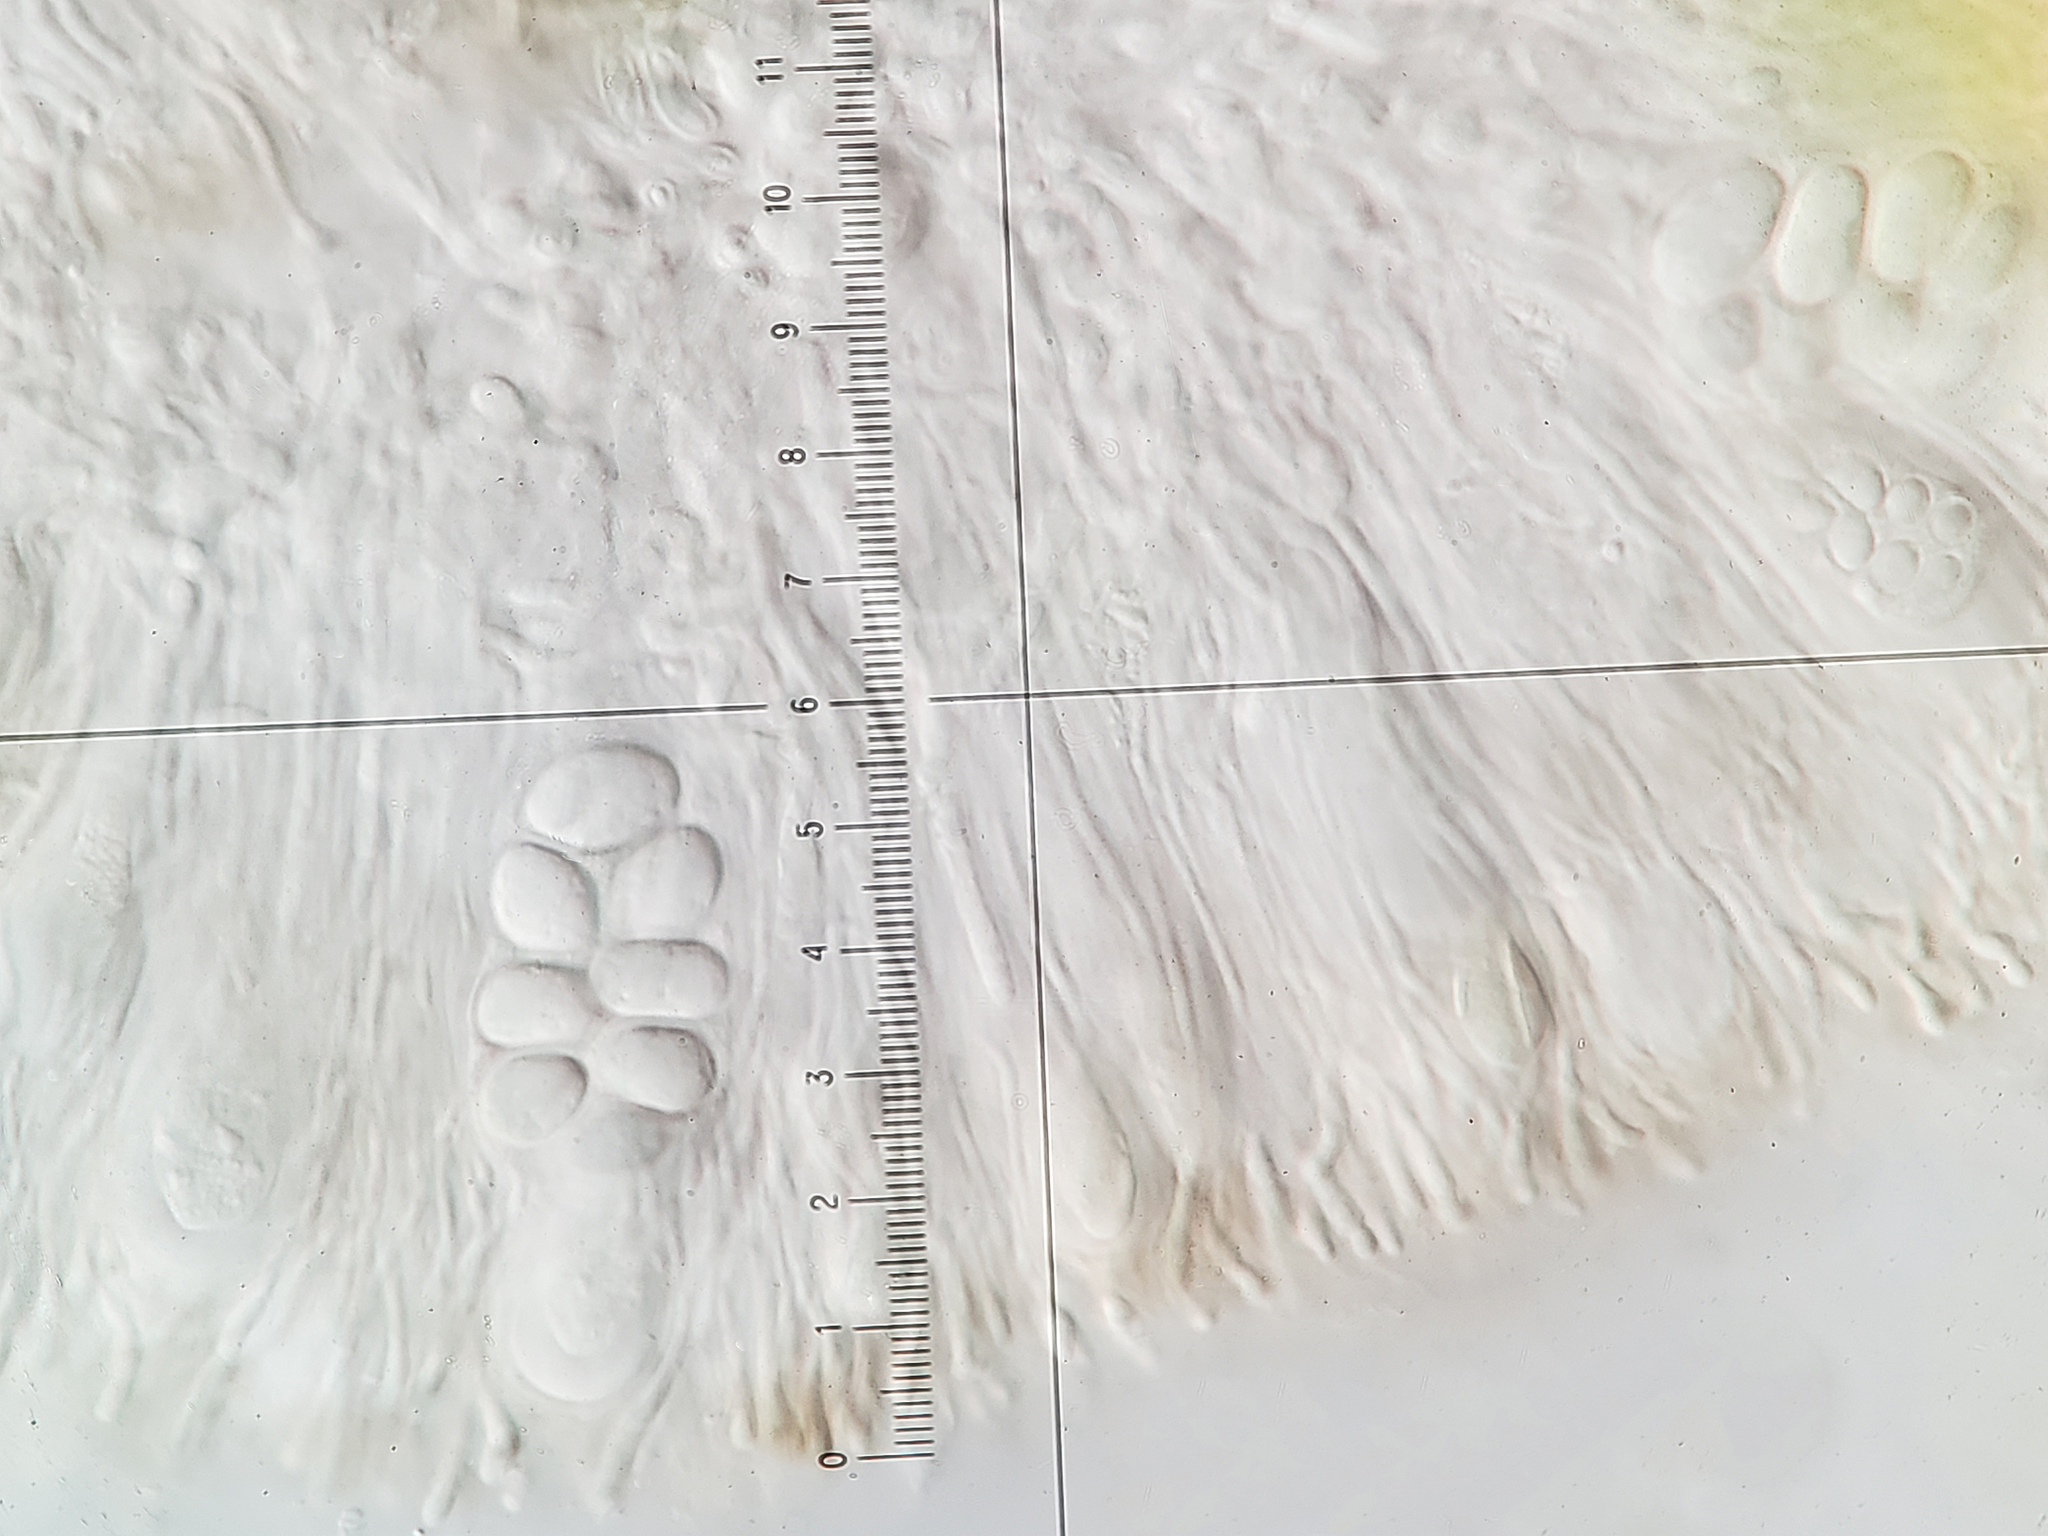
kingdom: Fungi
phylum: Ascomycota
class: Lecanoromycetes
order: Lecanorales
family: Lecanoraceae
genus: Lecanora
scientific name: Lecanora hybocarpa
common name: Bumpy rim-lichen
